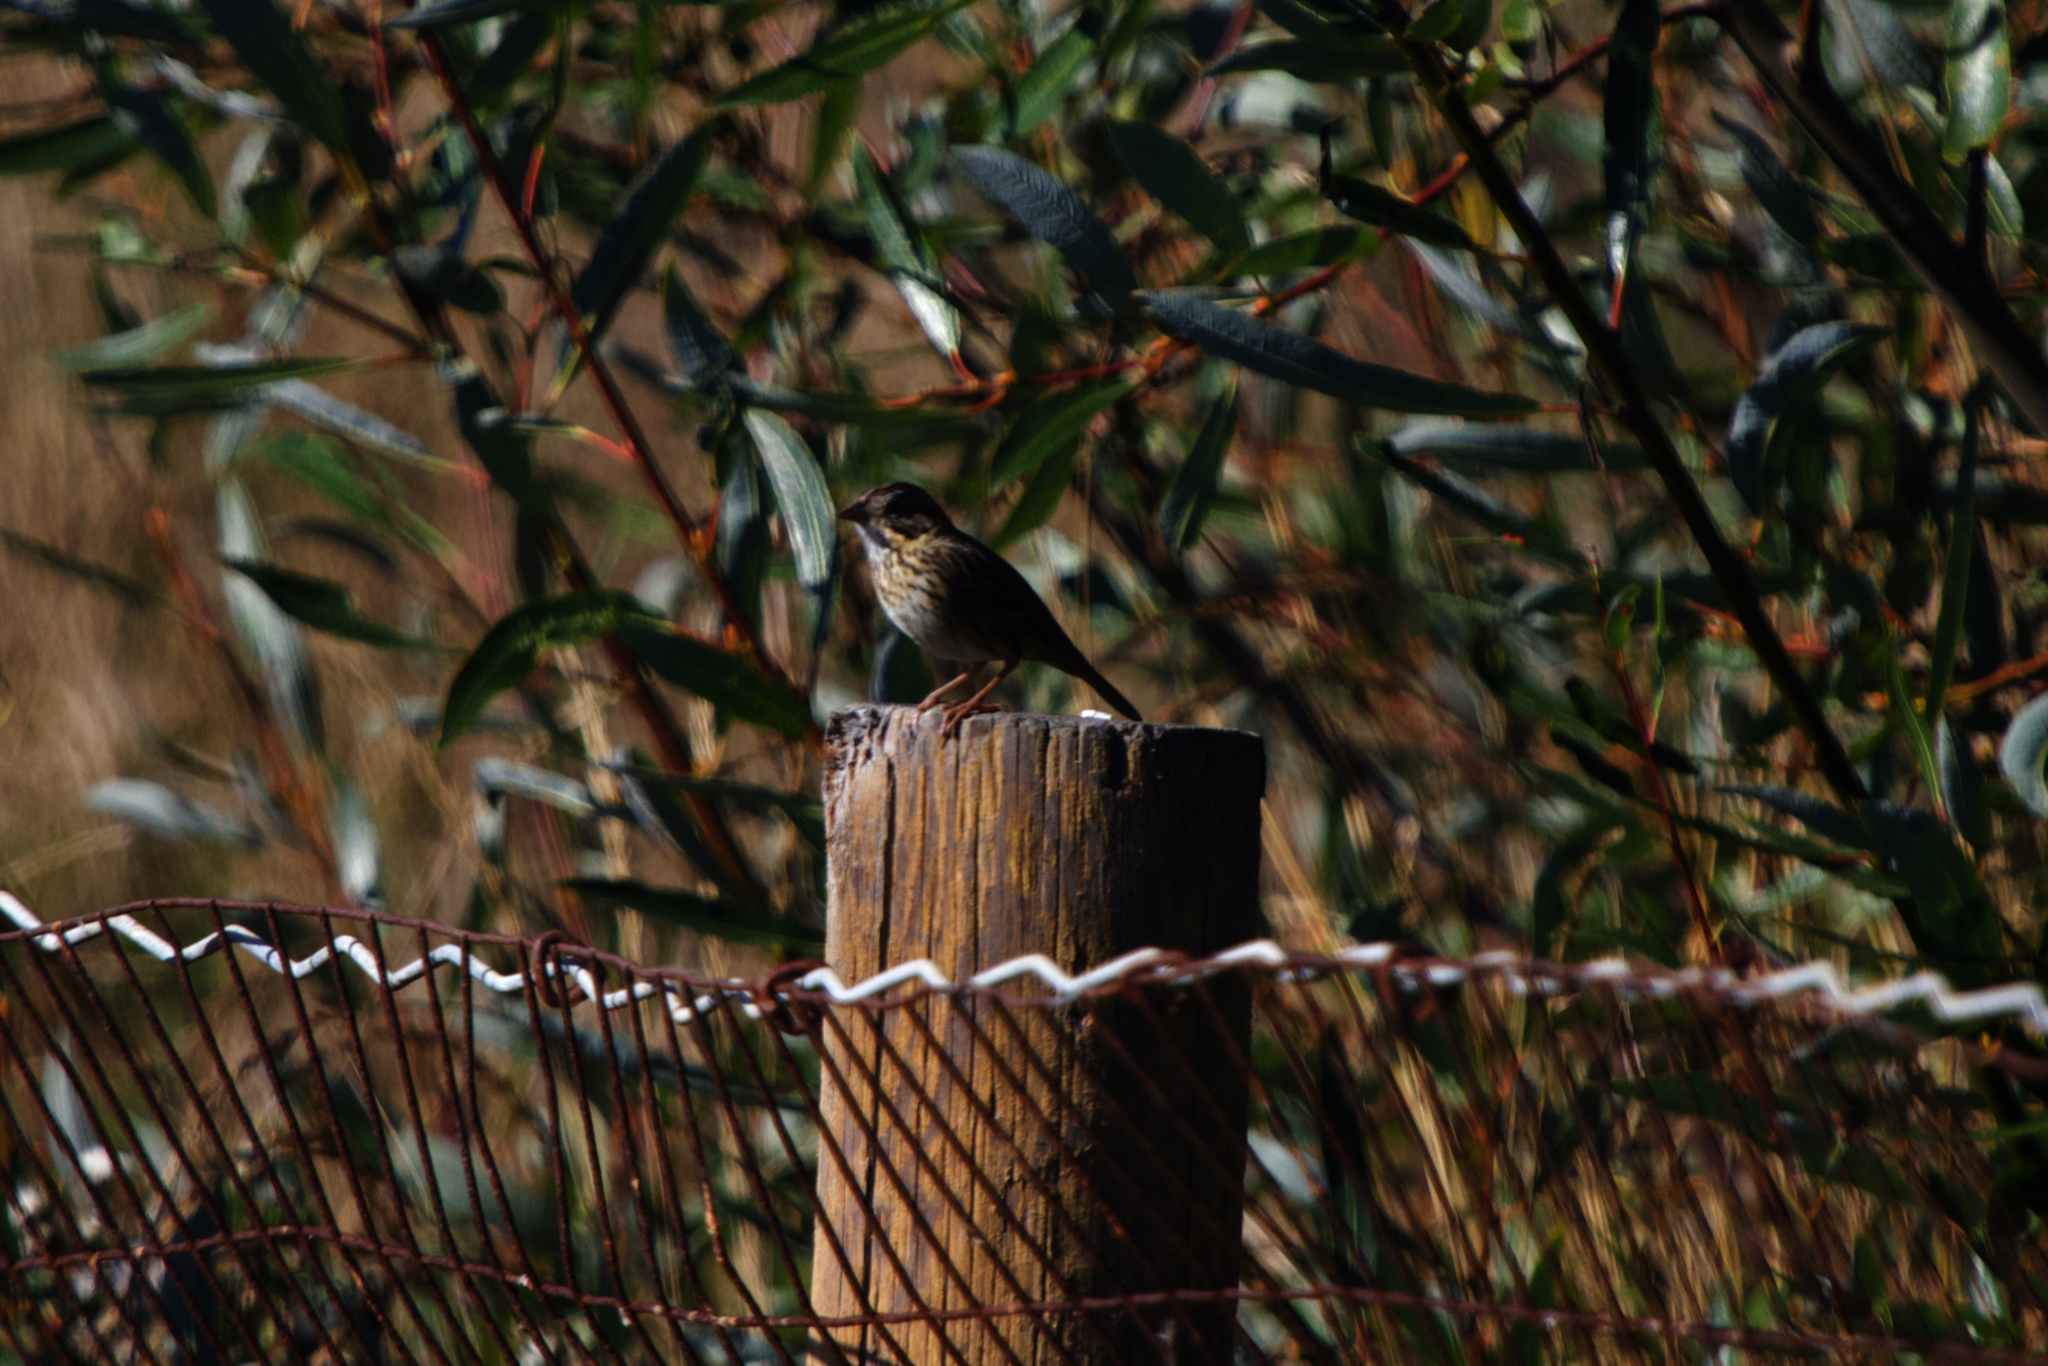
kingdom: Animalia
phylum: Chordata
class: Aves
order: Passeriformes
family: Passerellidae
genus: Melospiza
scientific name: Melospiza lincolnii
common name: Lincoln's sparrow
